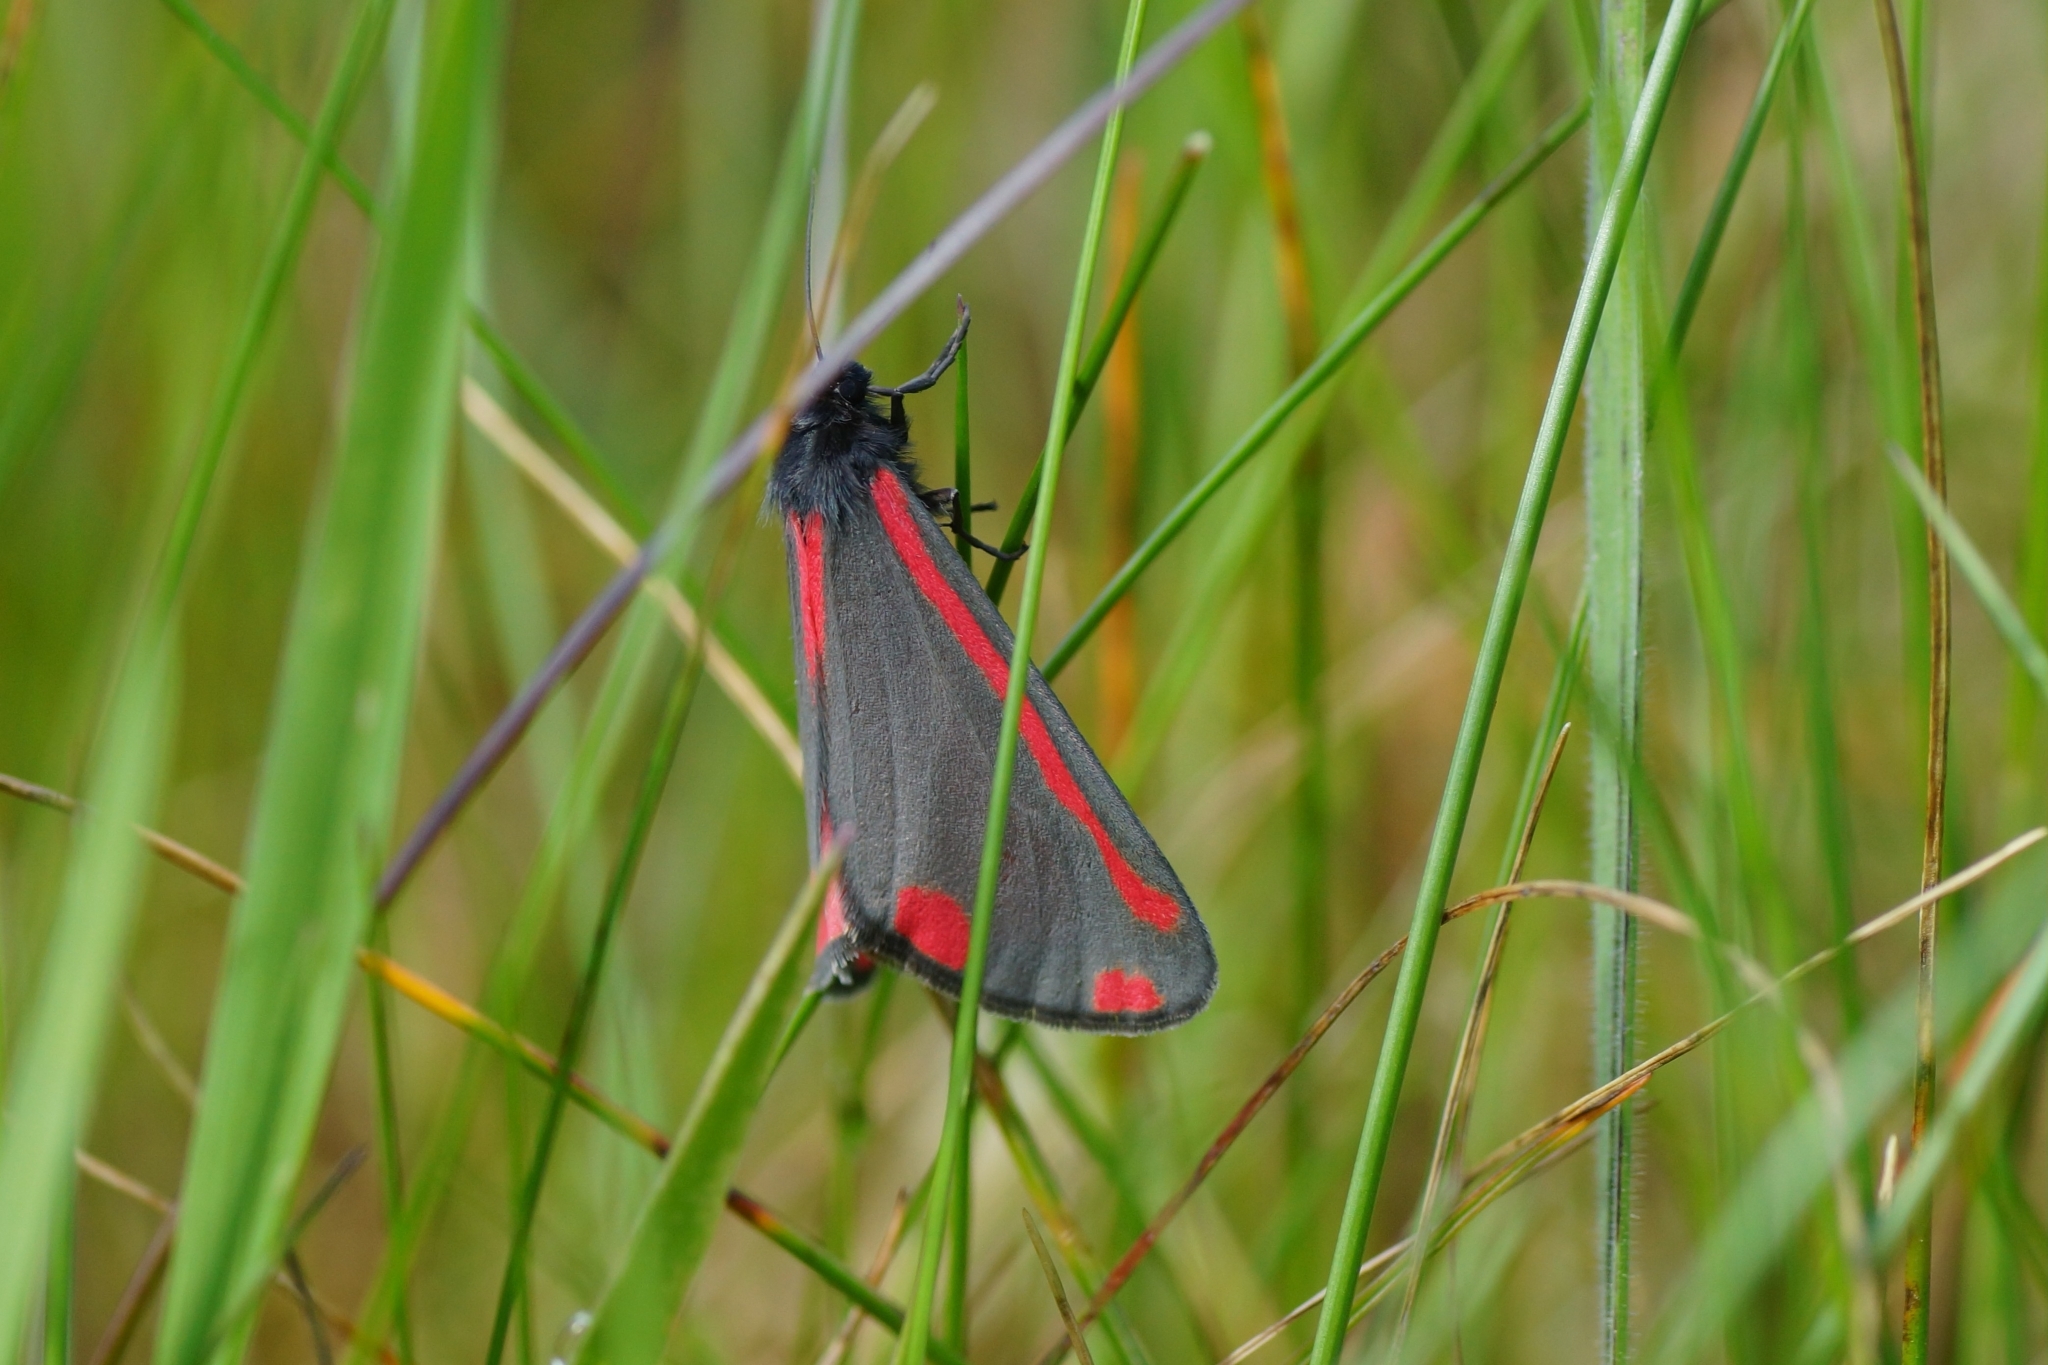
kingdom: Animalia
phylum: Arthropoda
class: Insecta
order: Lepidoptera
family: Erebidae
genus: Tyria
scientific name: Tyria jacobaeae
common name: Cinnabar
